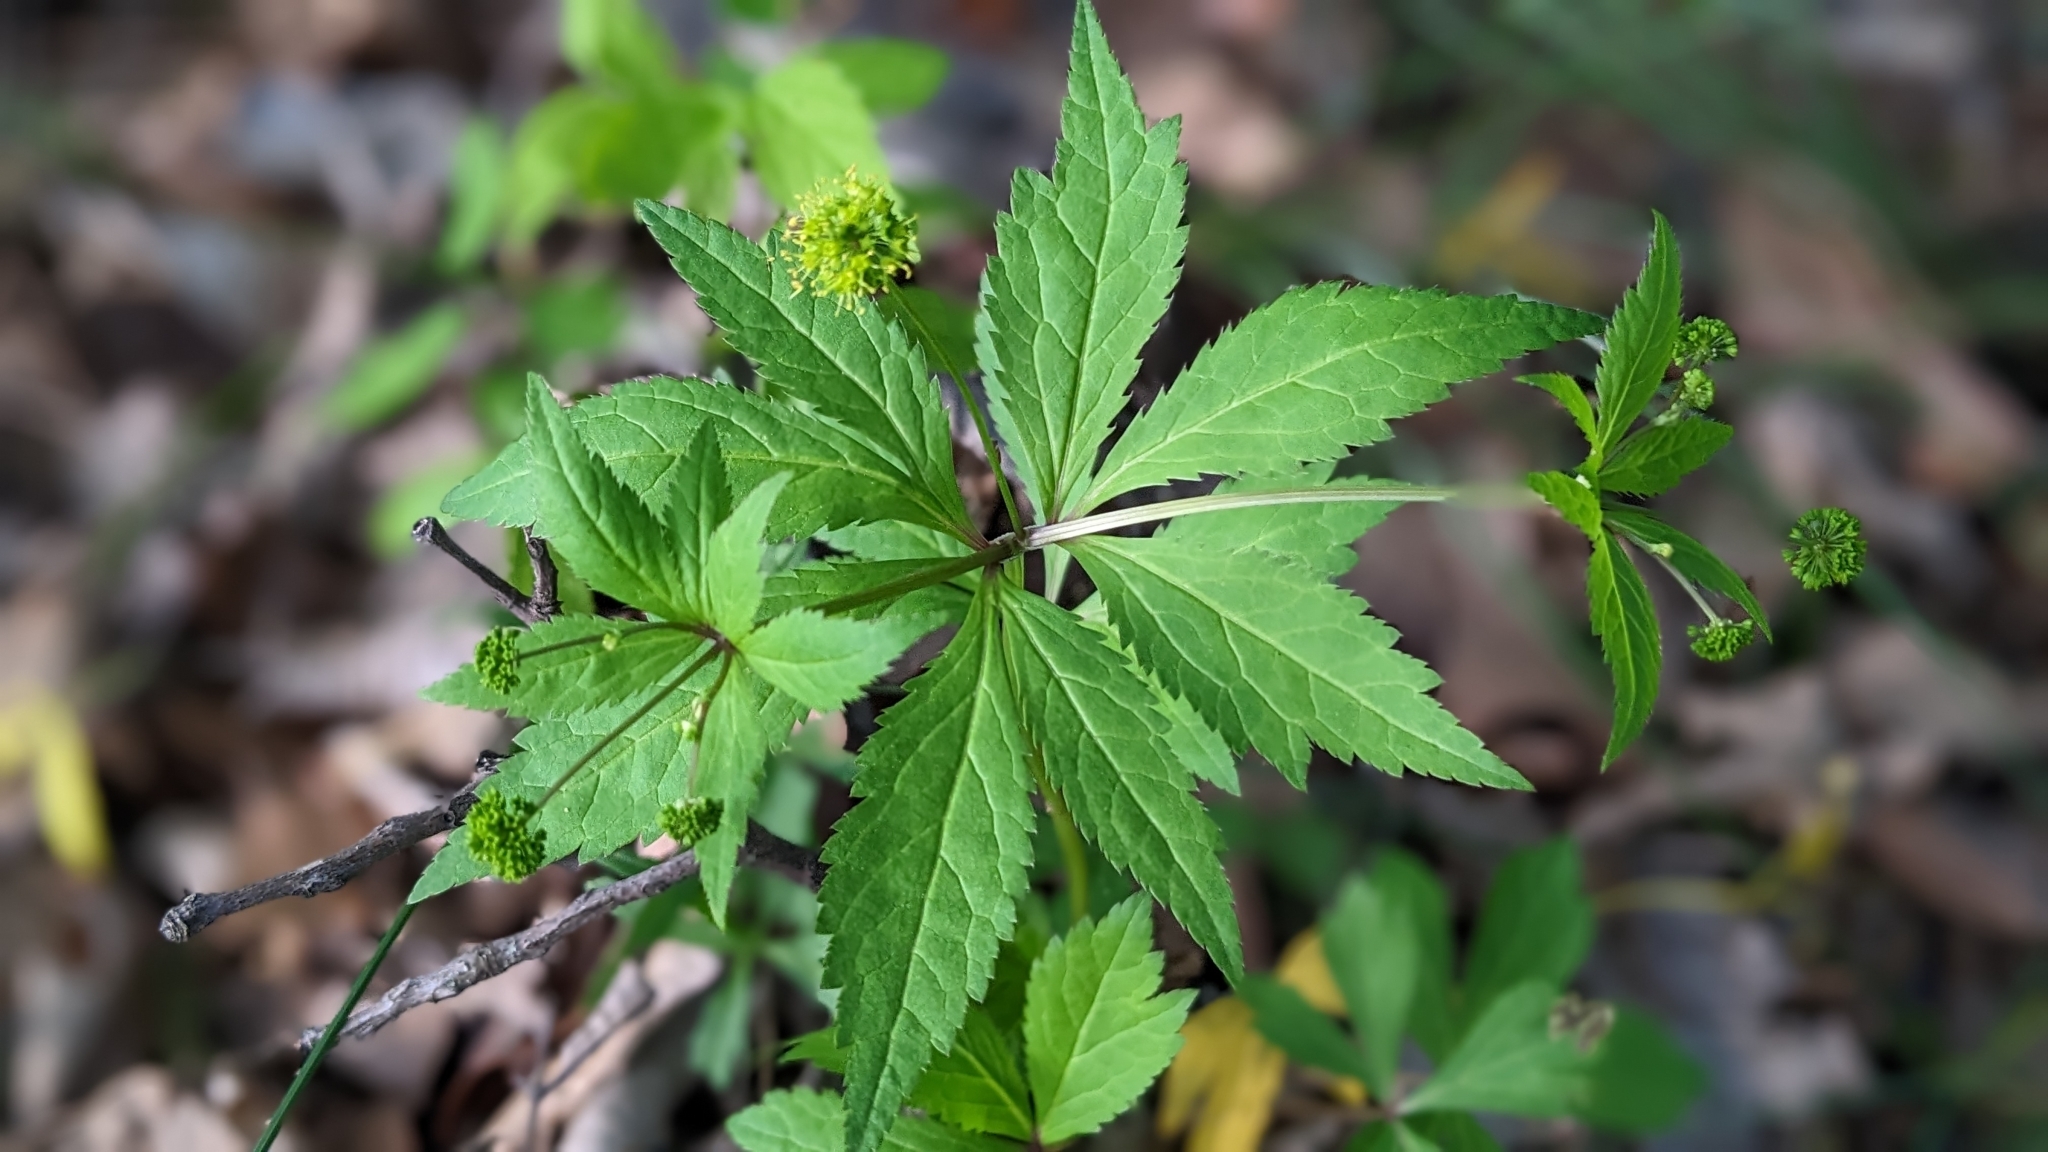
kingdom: Plantae
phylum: Tracheophyta
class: Magnoliopsida
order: Apiales
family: Apiaceae
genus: Sanicula
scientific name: Sanicula odorata
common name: Cluster sanicle
